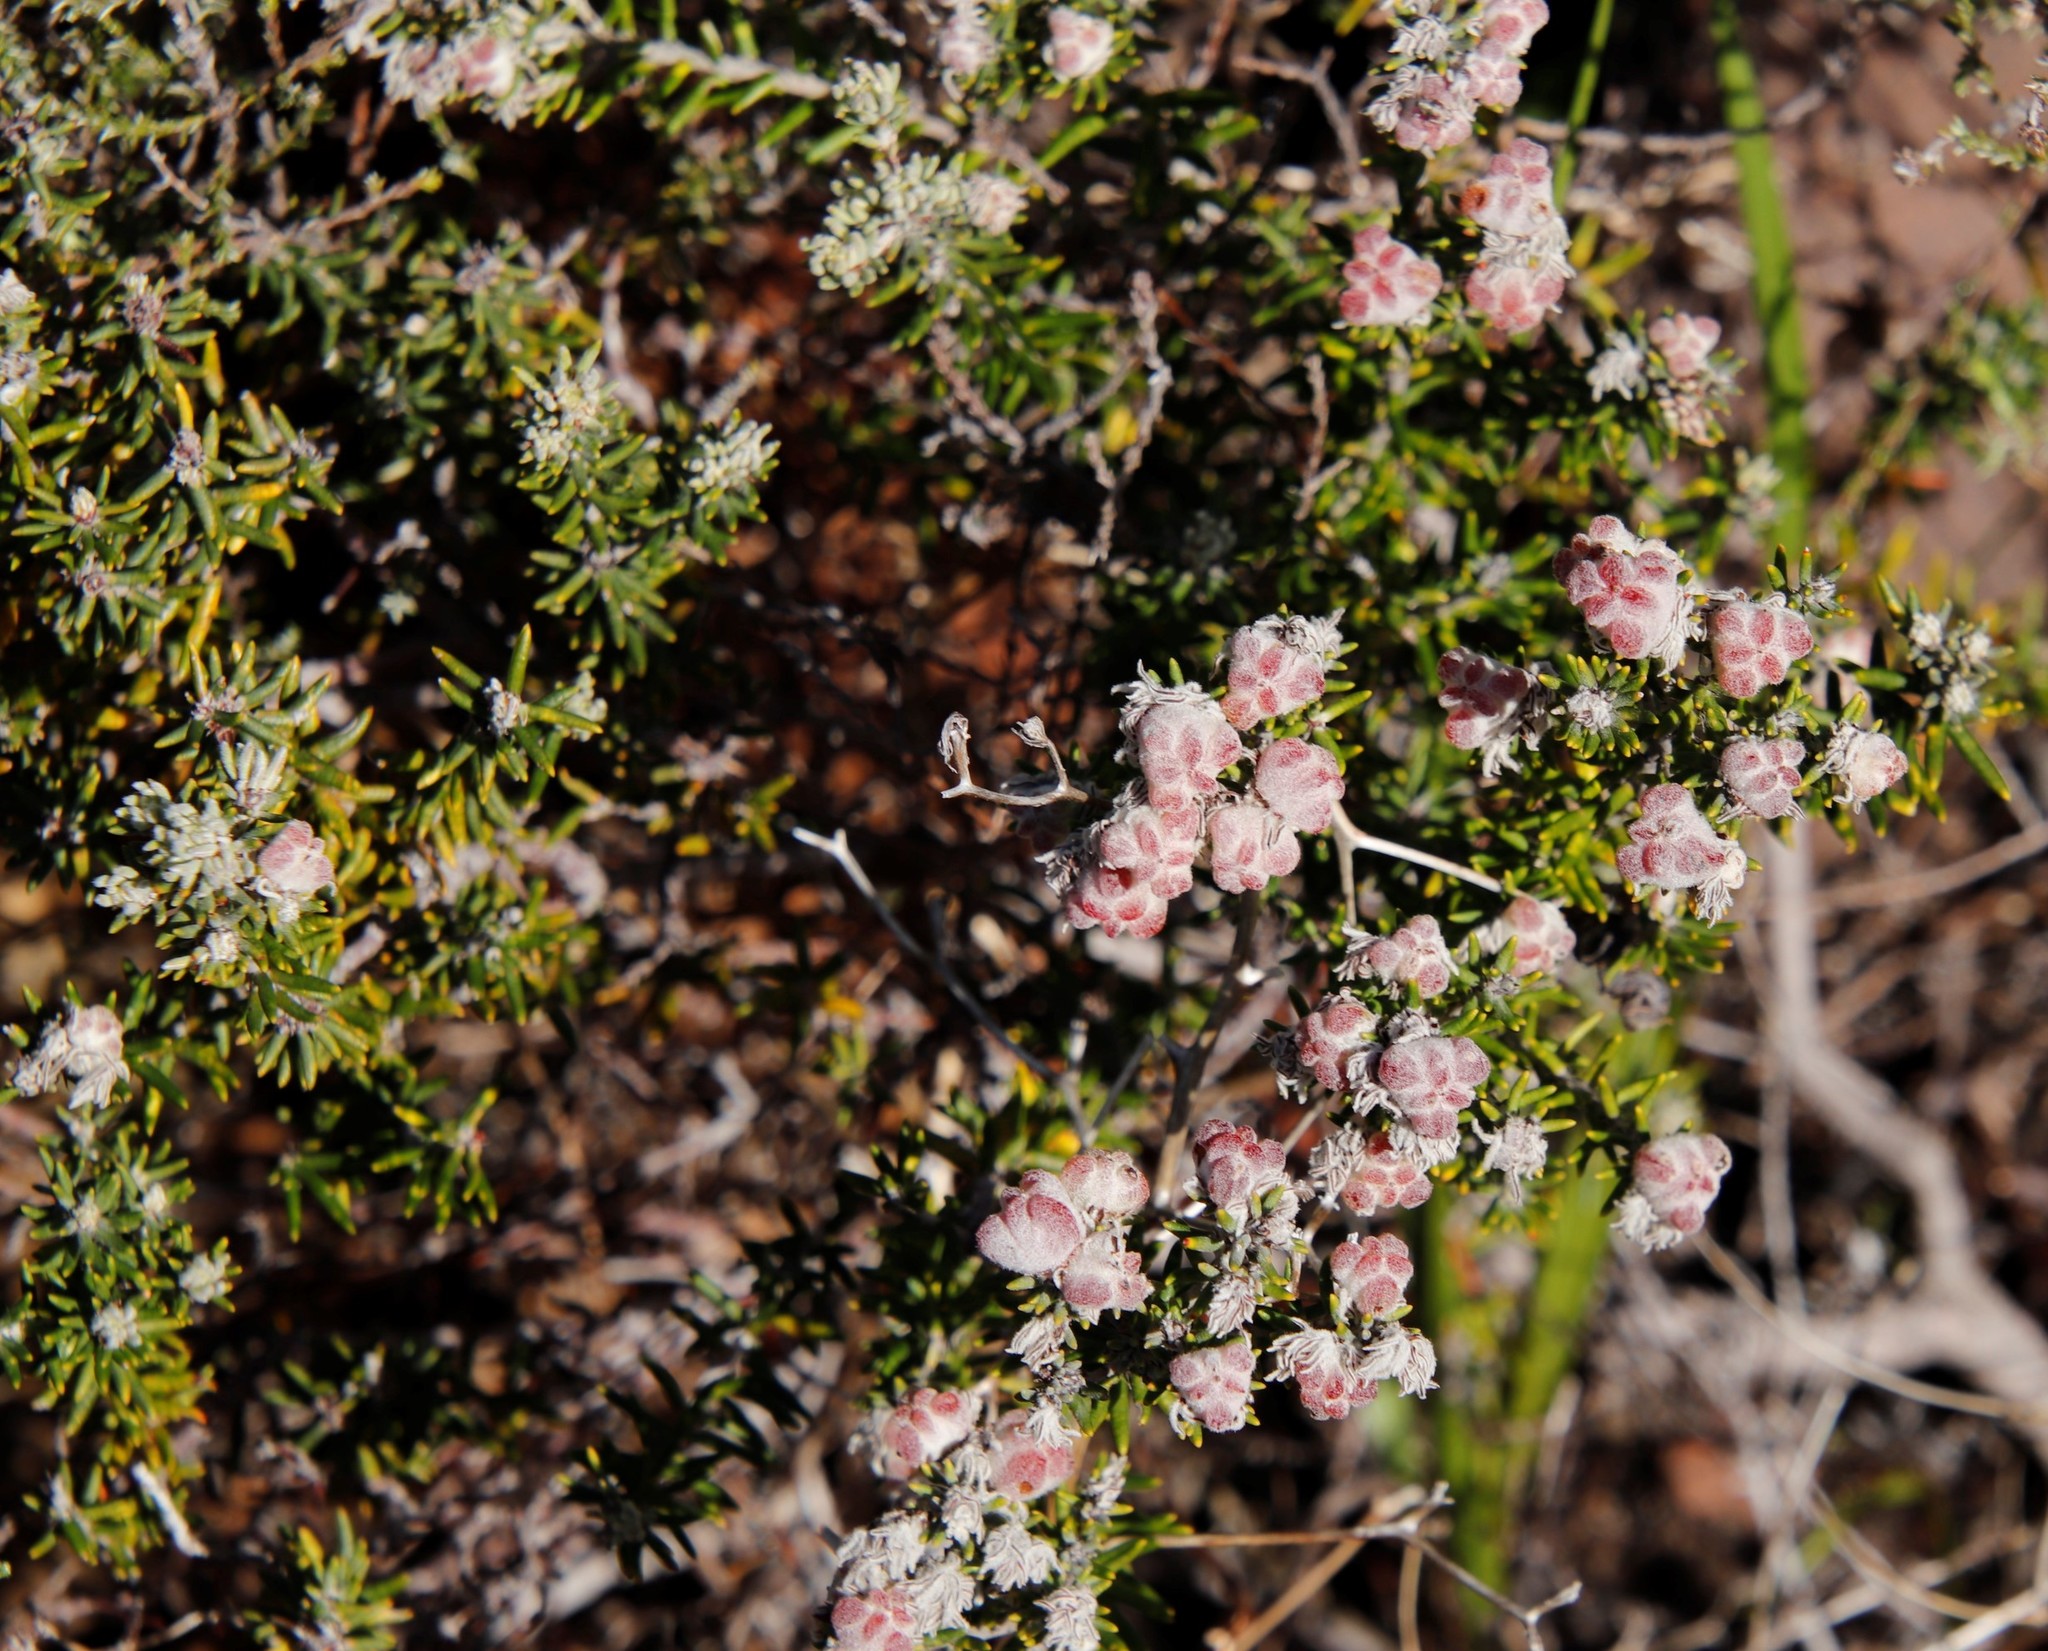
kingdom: Plantae
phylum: Tracheophyta
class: Magnoliopsida
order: Rosales
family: Rhamnaceae
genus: Trichocephalus
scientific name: Trichocephalus stipularis
